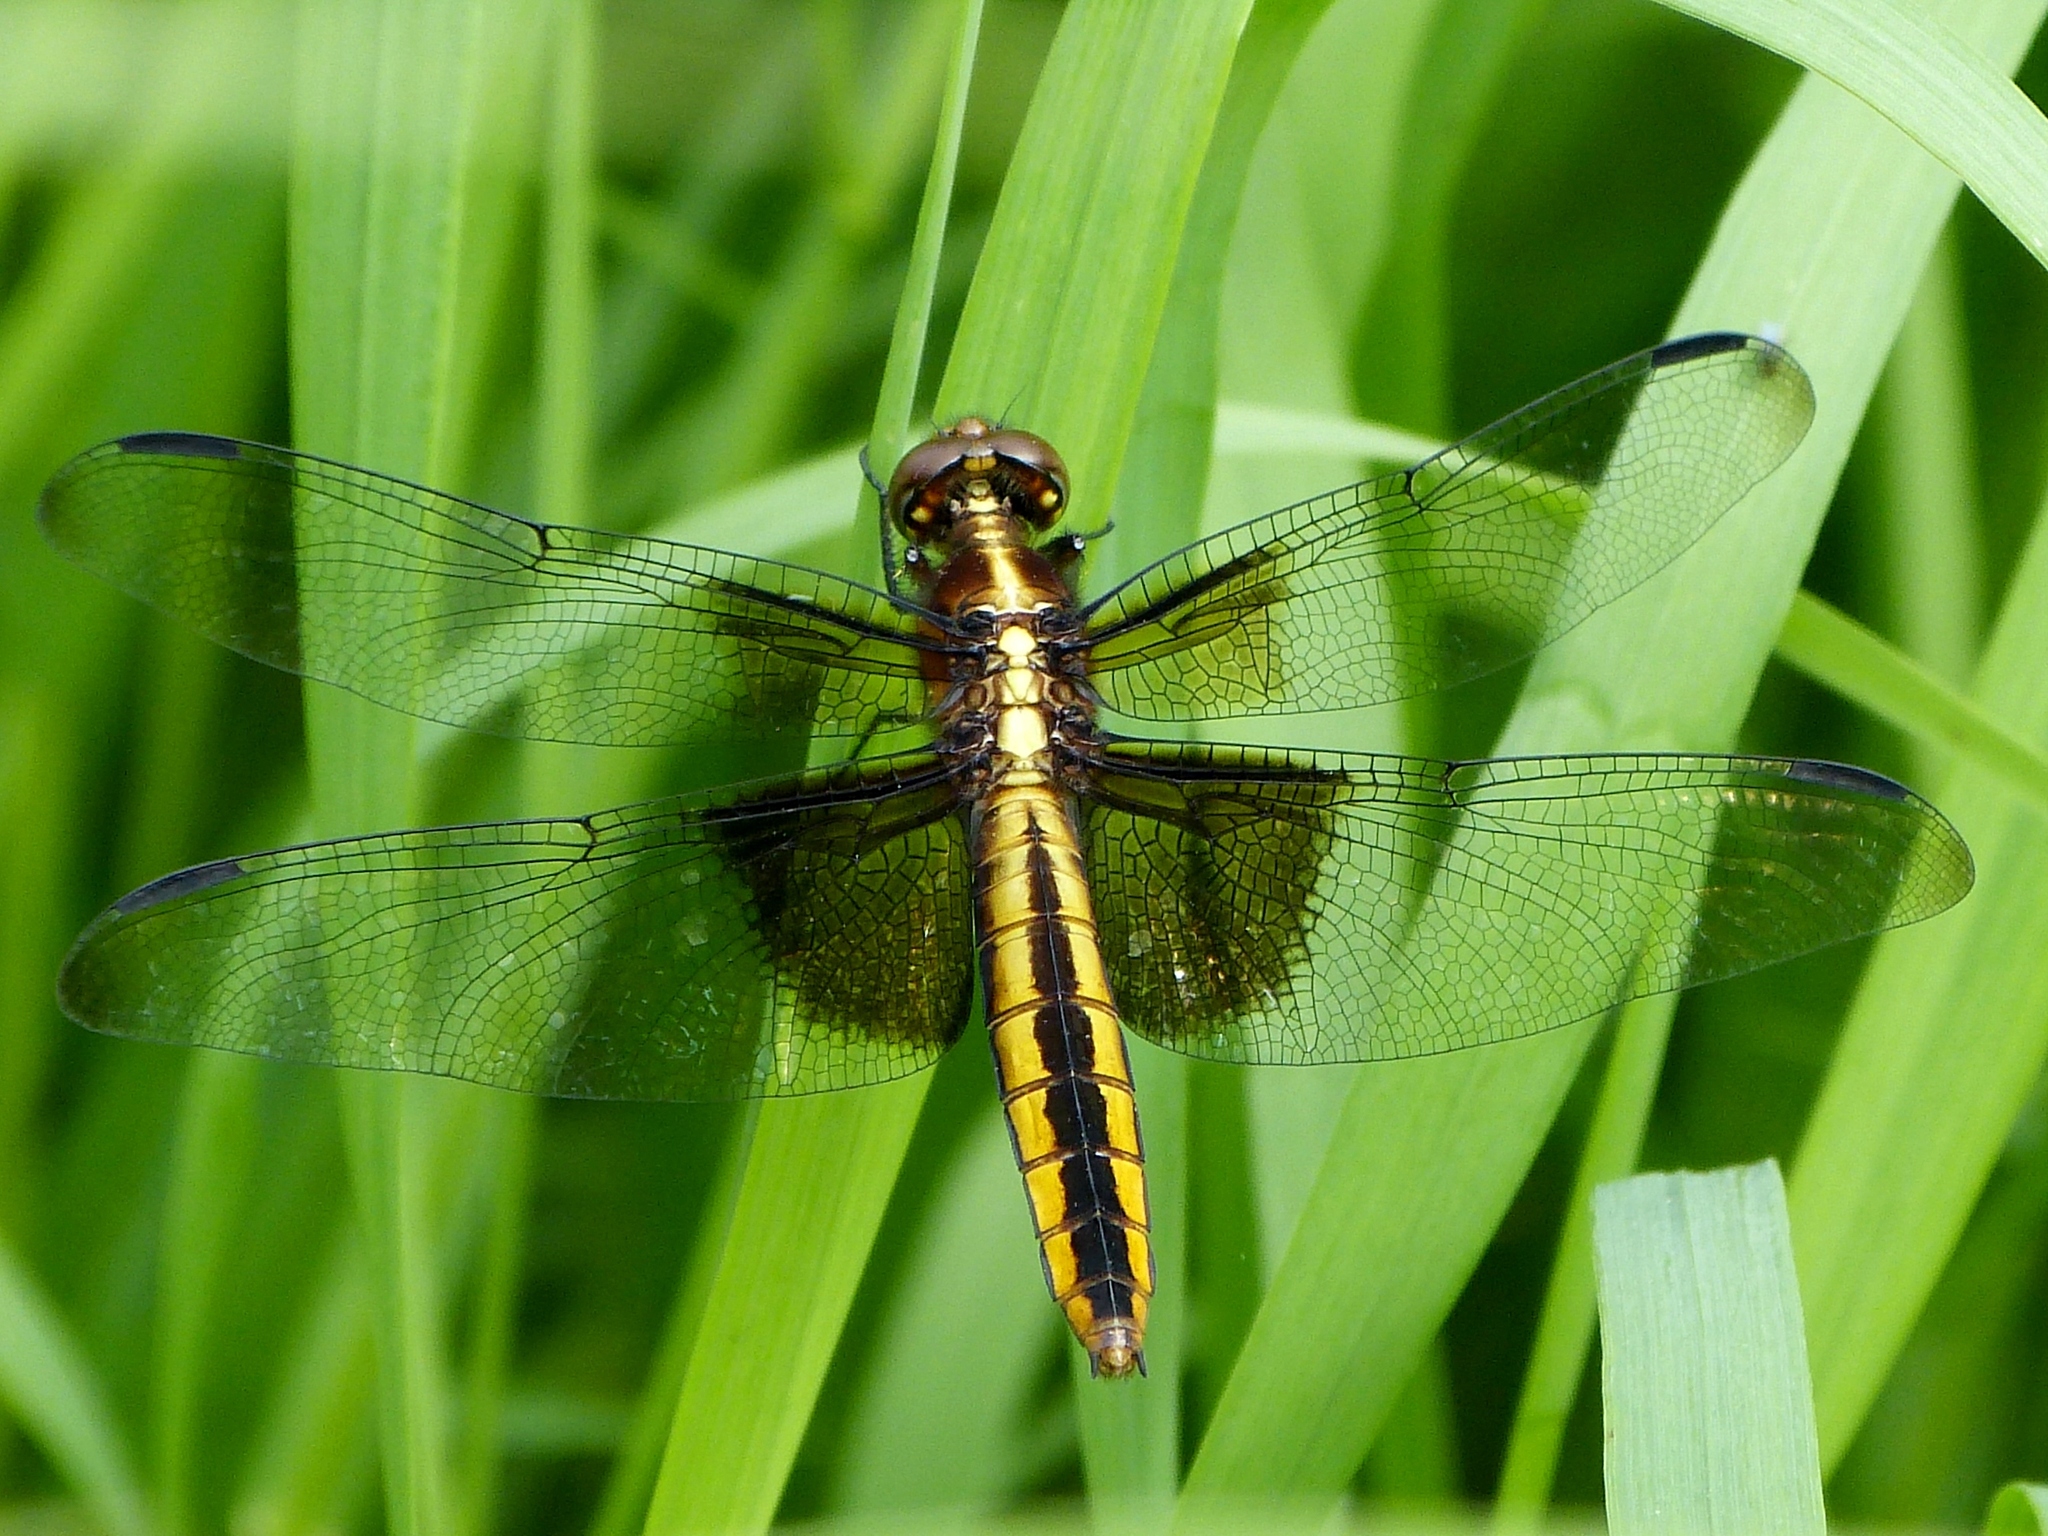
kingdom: Animalia
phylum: Arthropoda
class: Insecta
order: Odonata
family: Libellulidae
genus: Libellula
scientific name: Libellula luctuosa
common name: Widow skimmer
